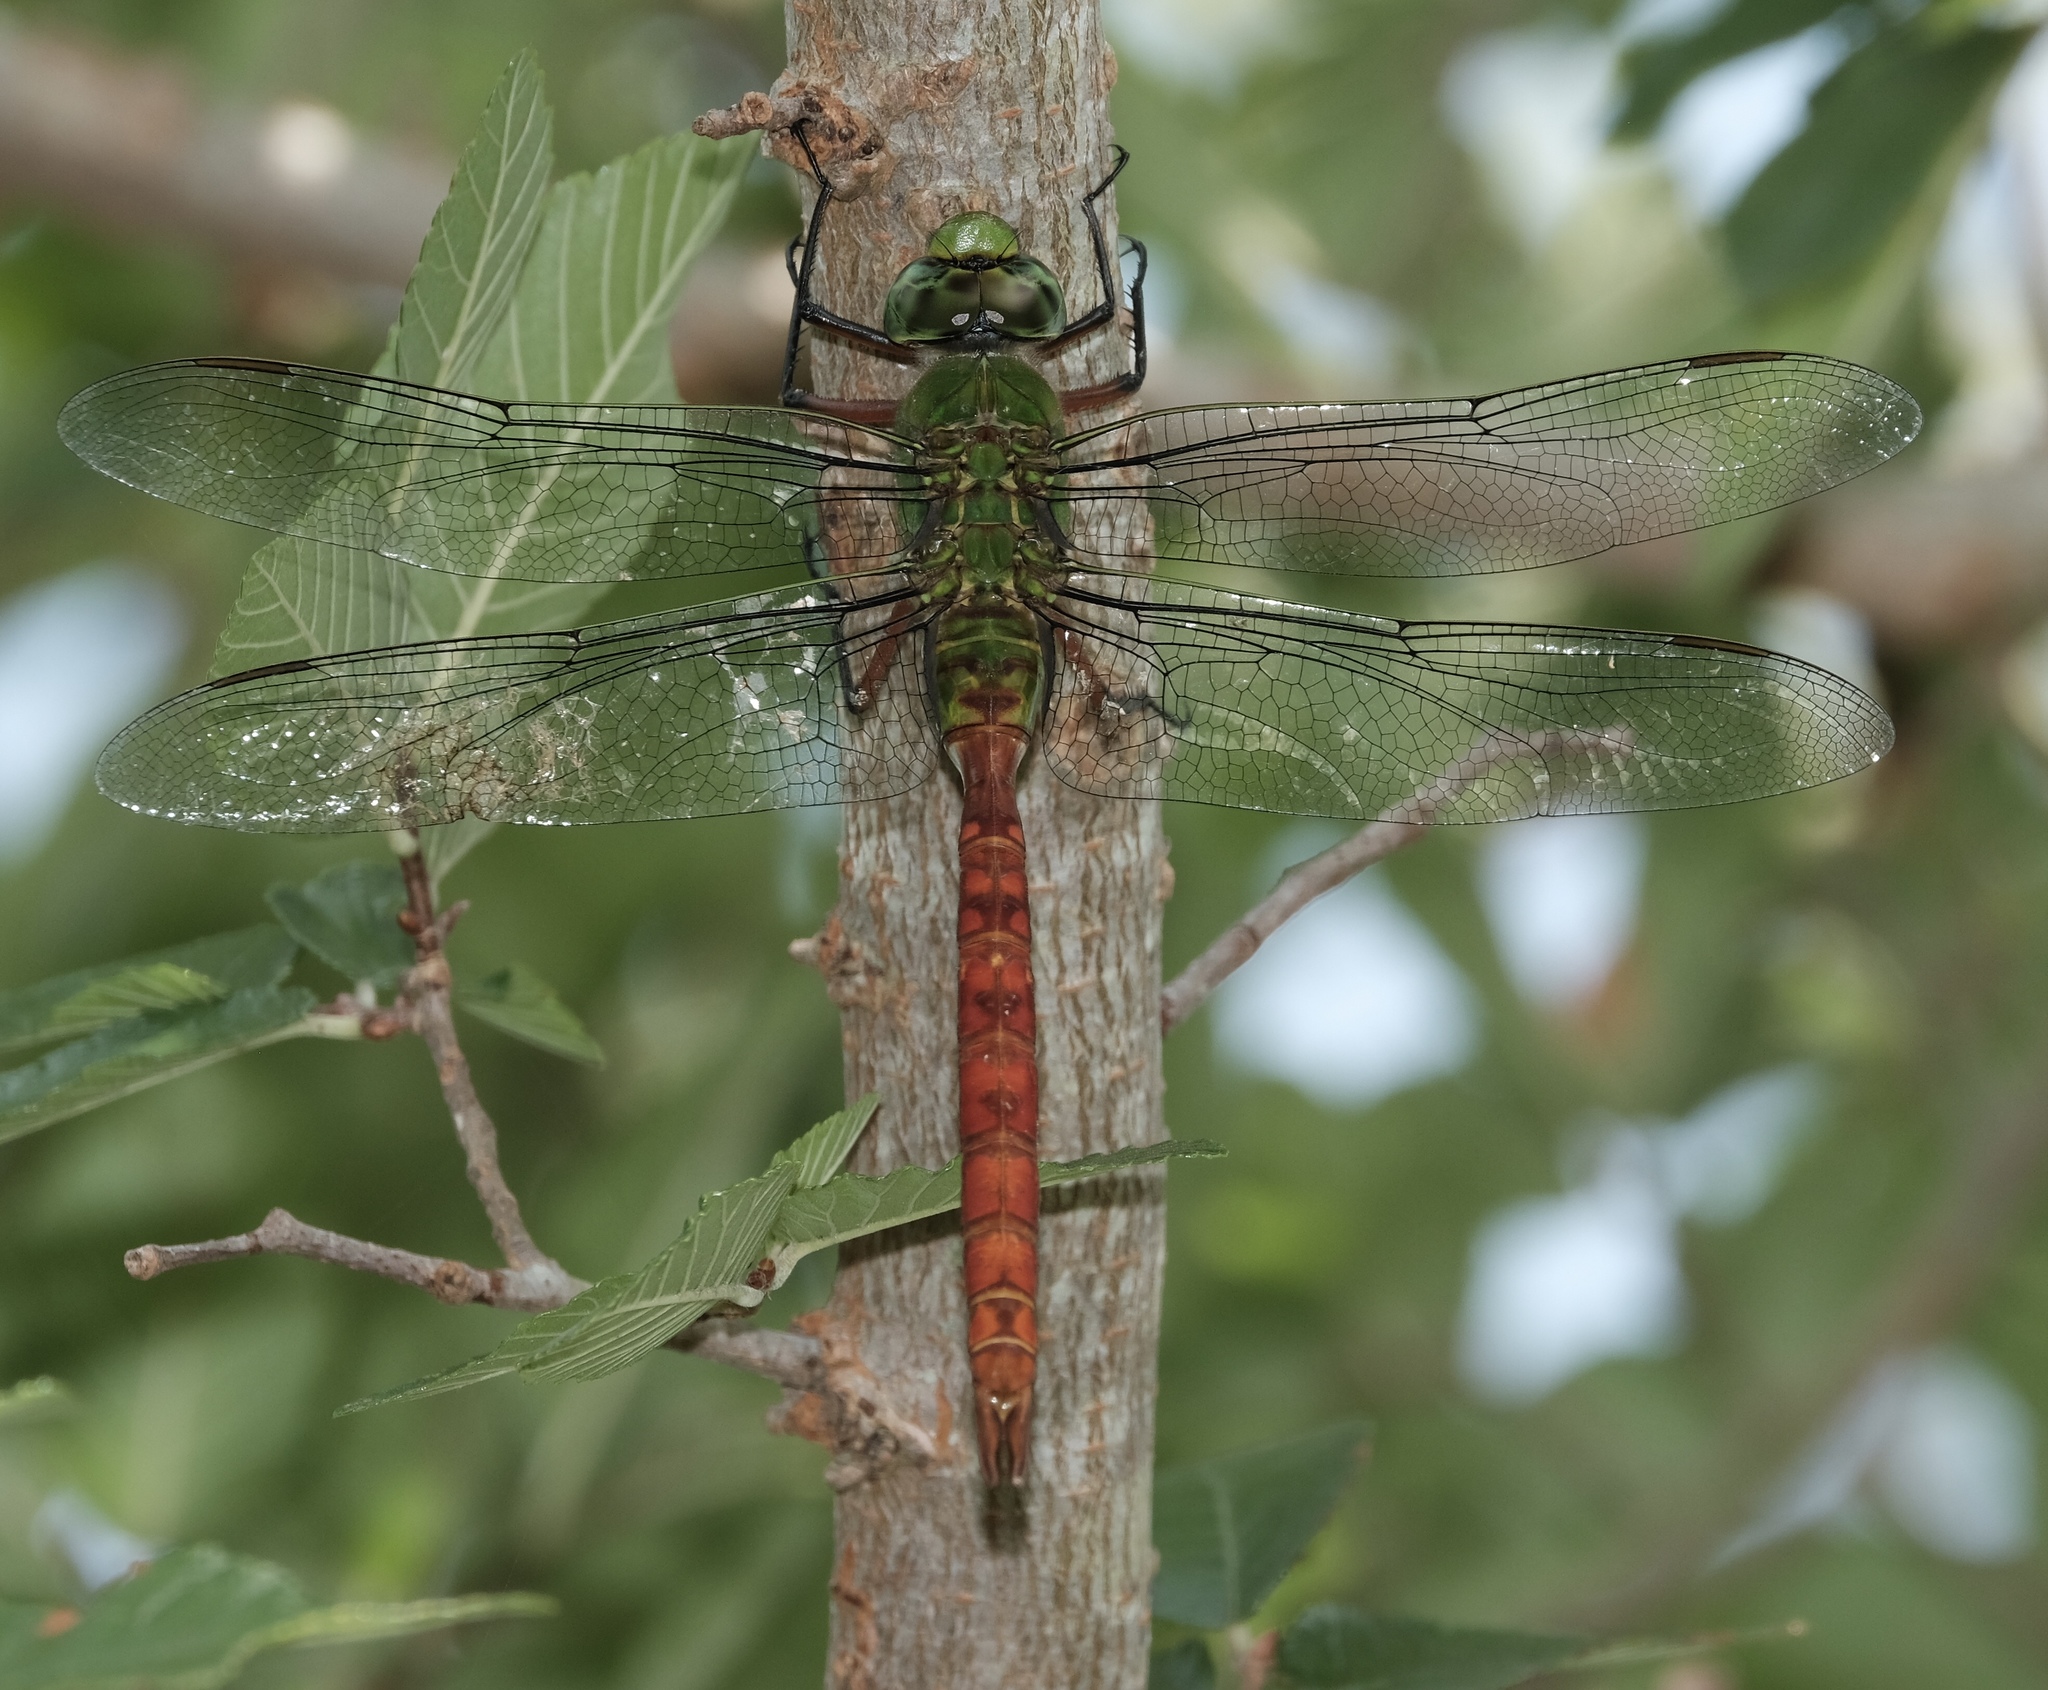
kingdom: Animalia
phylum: Arthropoda
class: Insecta
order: Odonata
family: Aeshnidae
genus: Anax
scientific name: Anax longipes
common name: Comet darner
